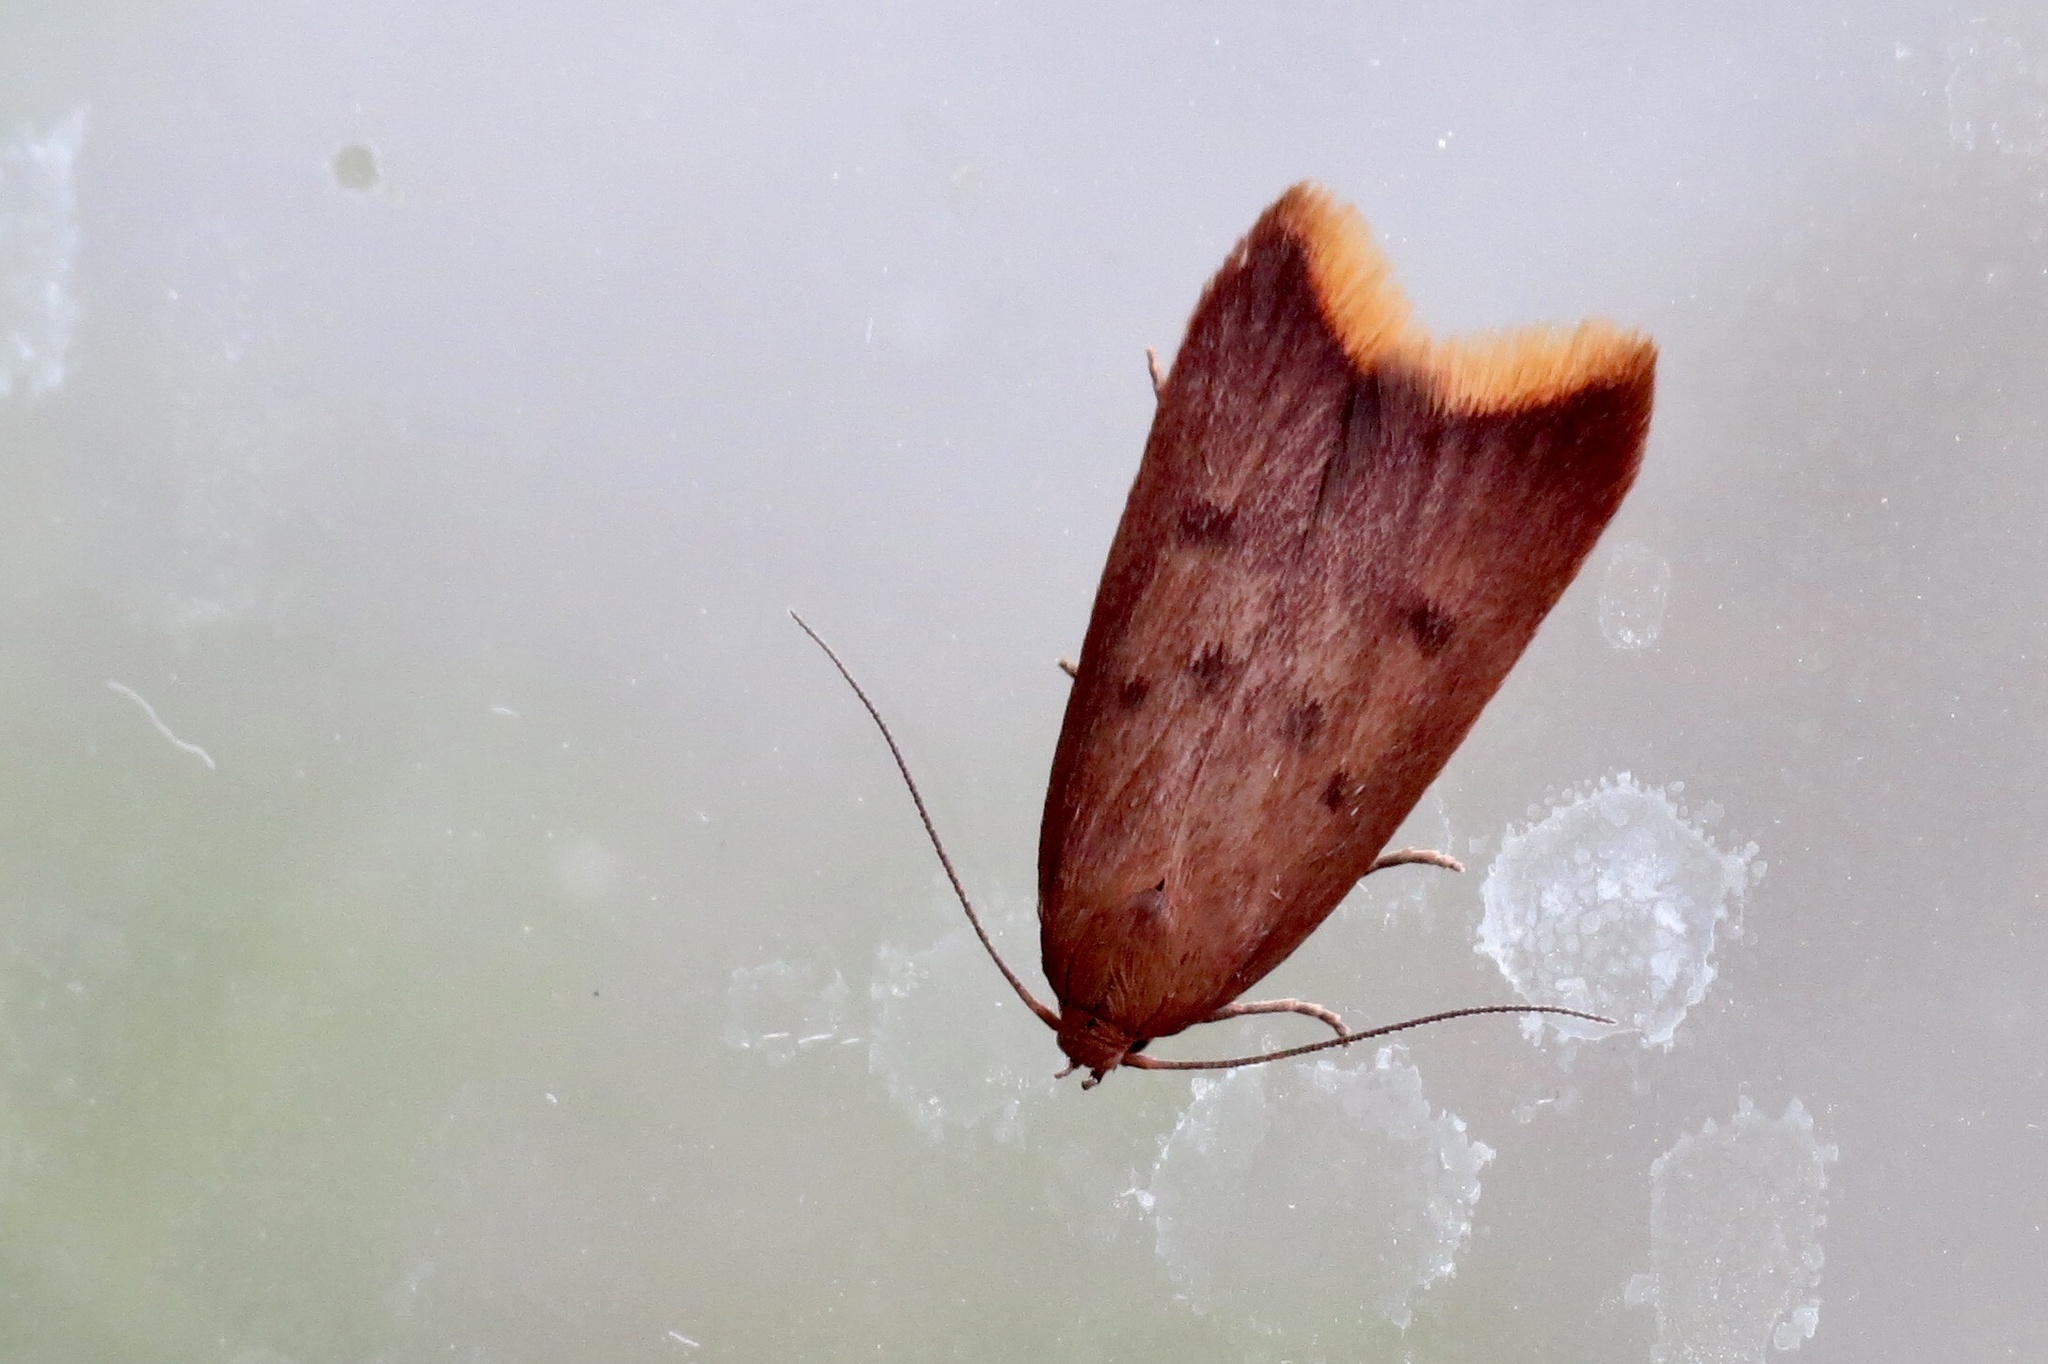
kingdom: Animalia
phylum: Arthropoda
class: Insecta
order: Lepidoptera
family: Oecophoridae
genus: Tachystola
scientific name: Tachystola acroxantha
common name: Ruddy streak
